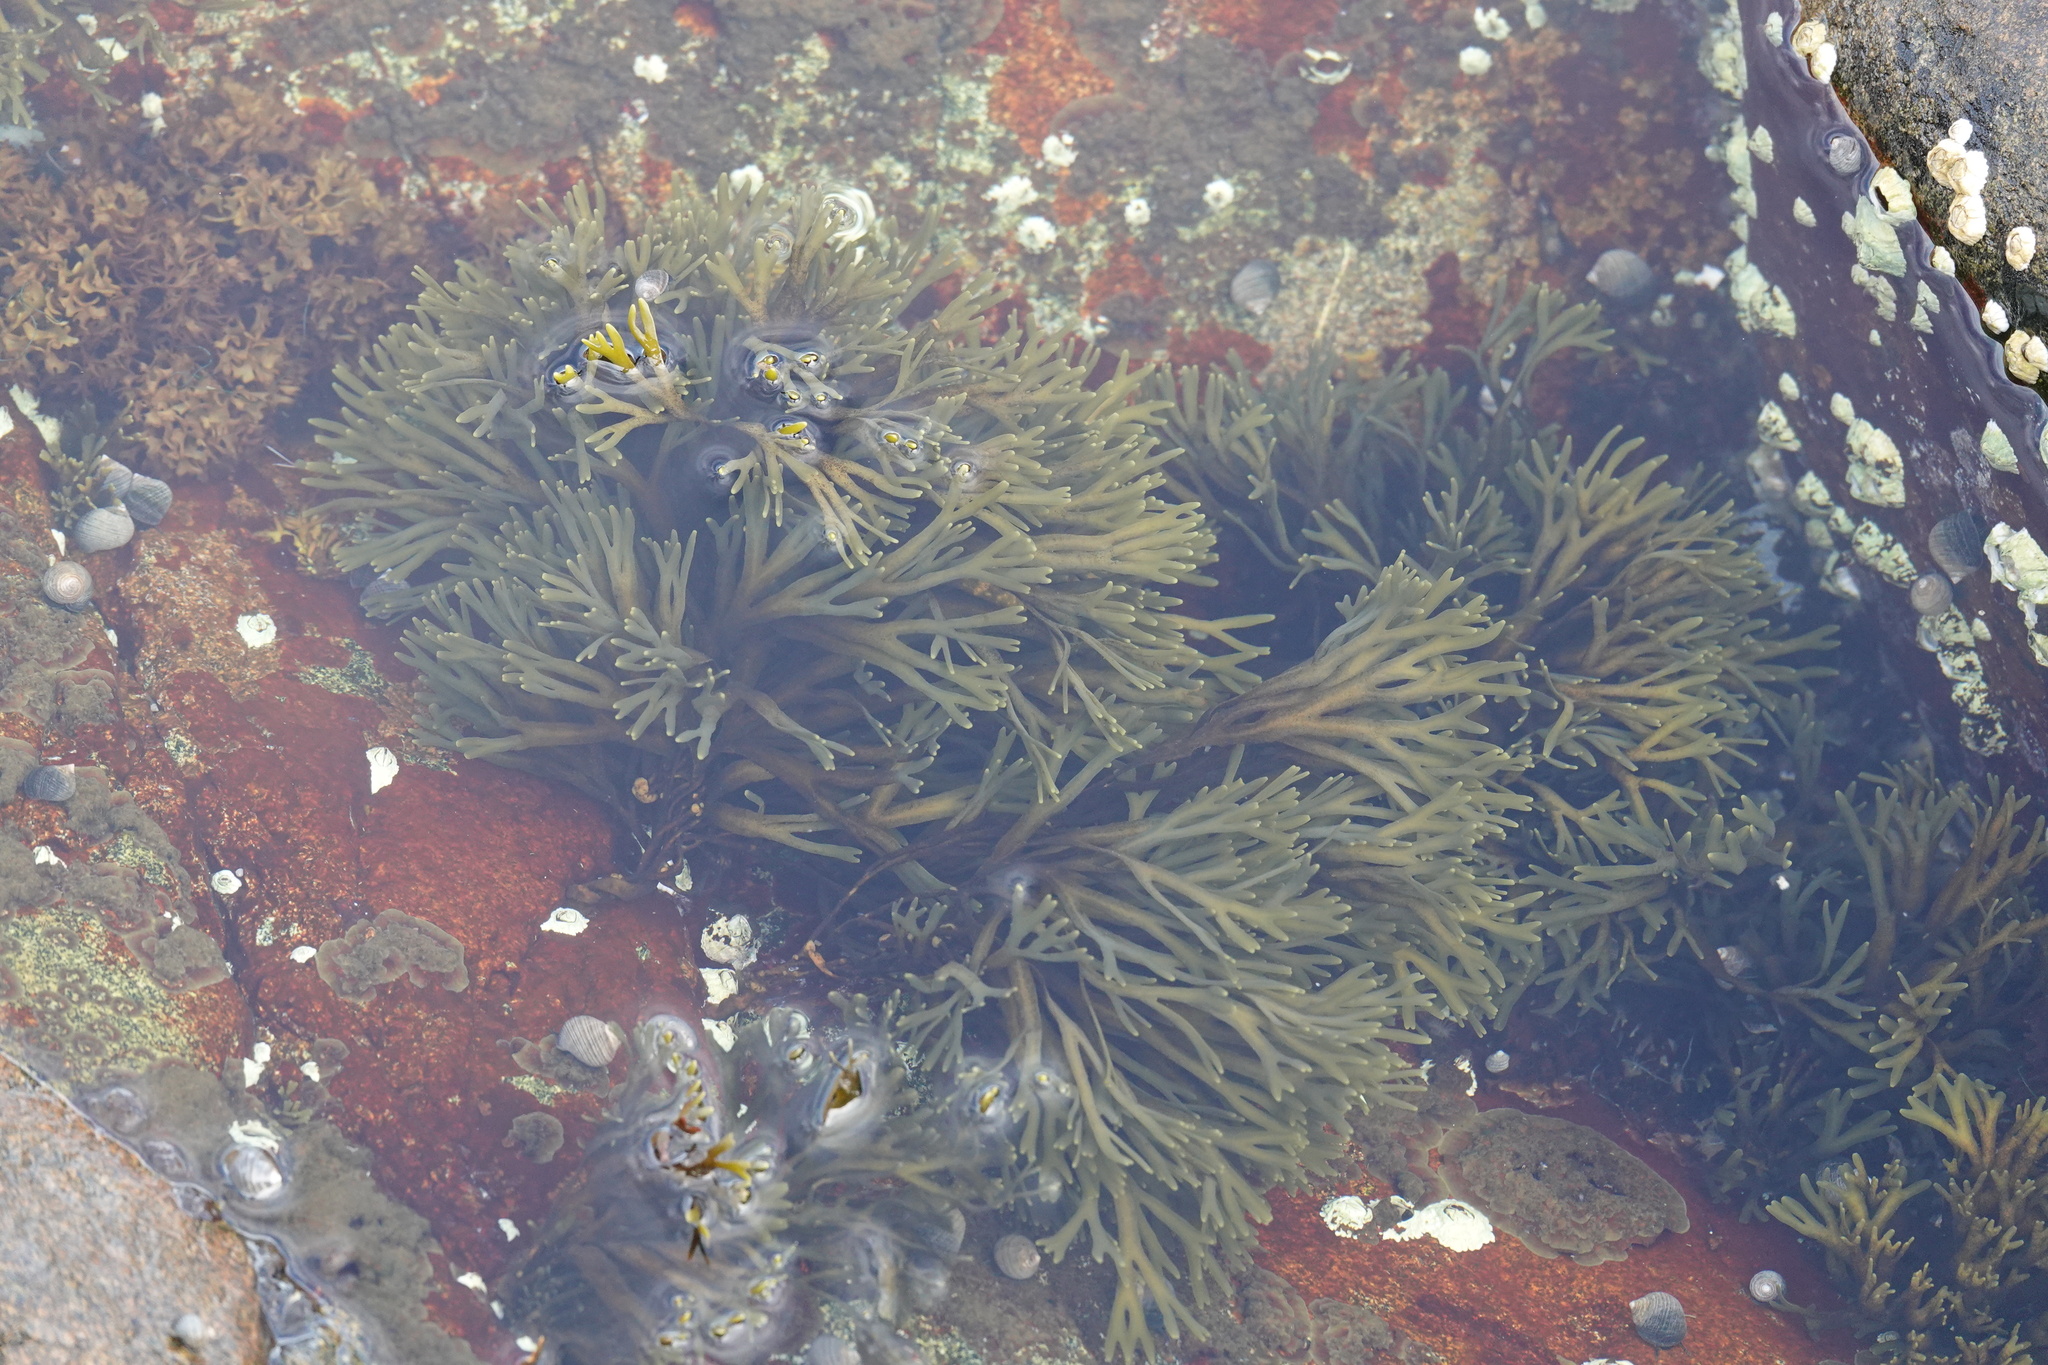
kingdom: Plantae
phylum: Chlorophyta
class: Ulvophyceae
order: Bryopsidales
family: Codiaceae
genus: Codium
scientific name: Codium fragile
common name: Dead man's fingers
